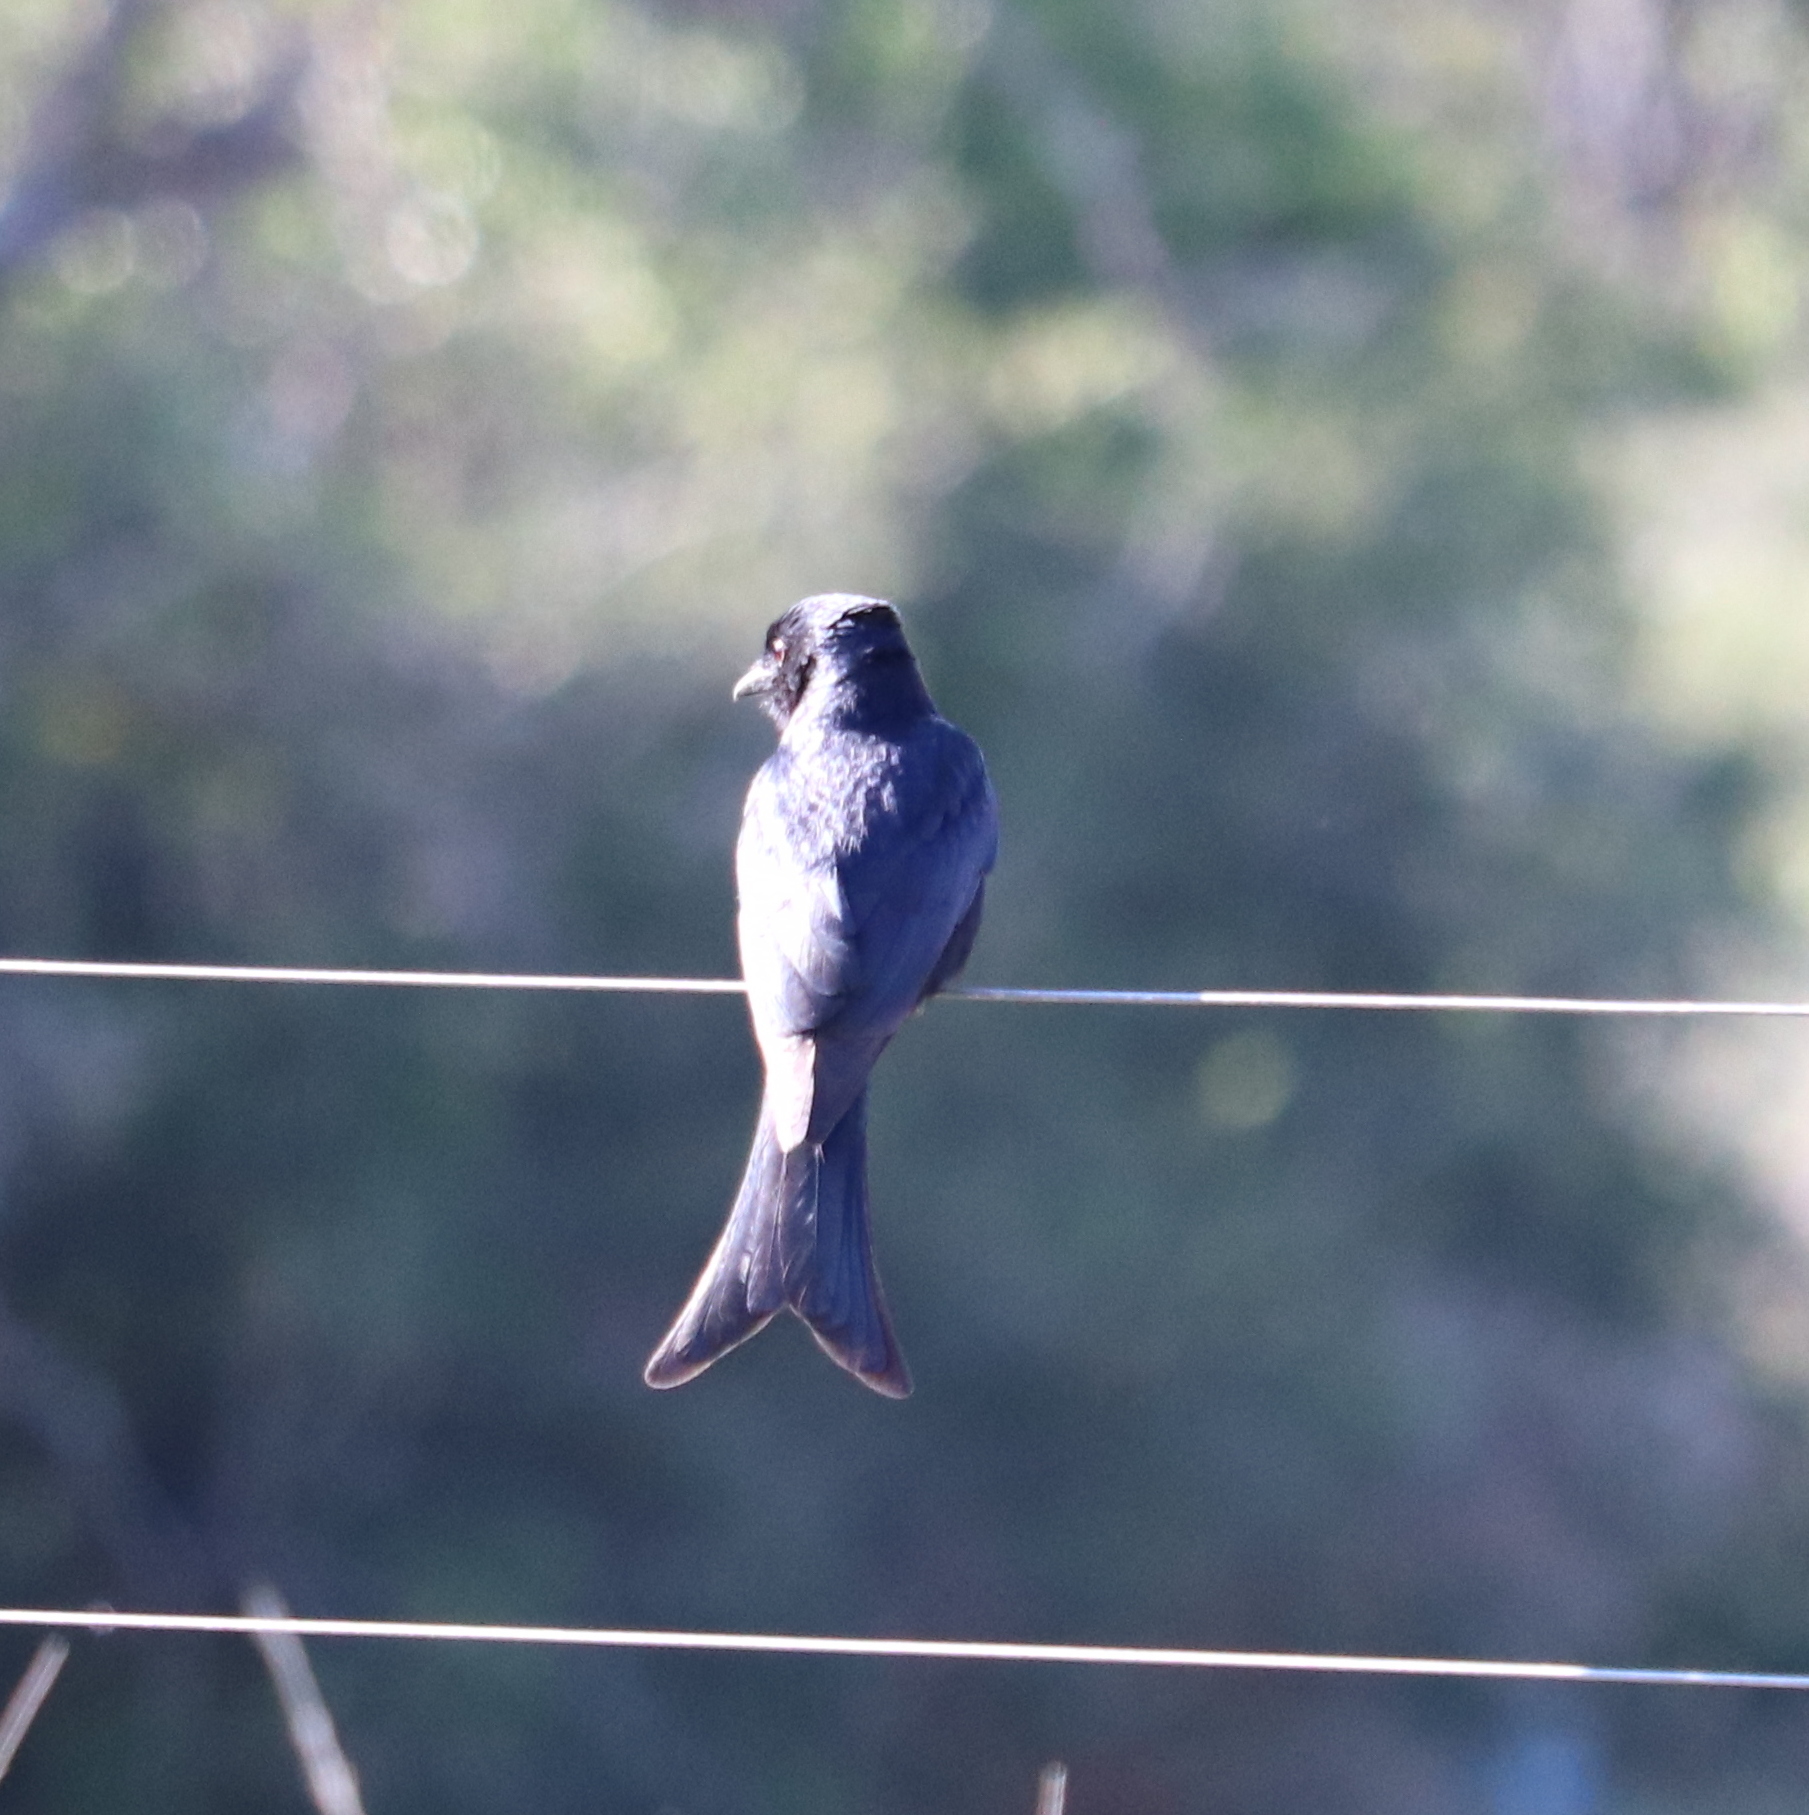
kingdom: Animalia
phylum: Chordata
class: Aves
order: Passeriformes
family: Dicruridae
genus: Dicrurus
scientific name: Dicrurus adsimilis
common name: Fork-tailed drongo
